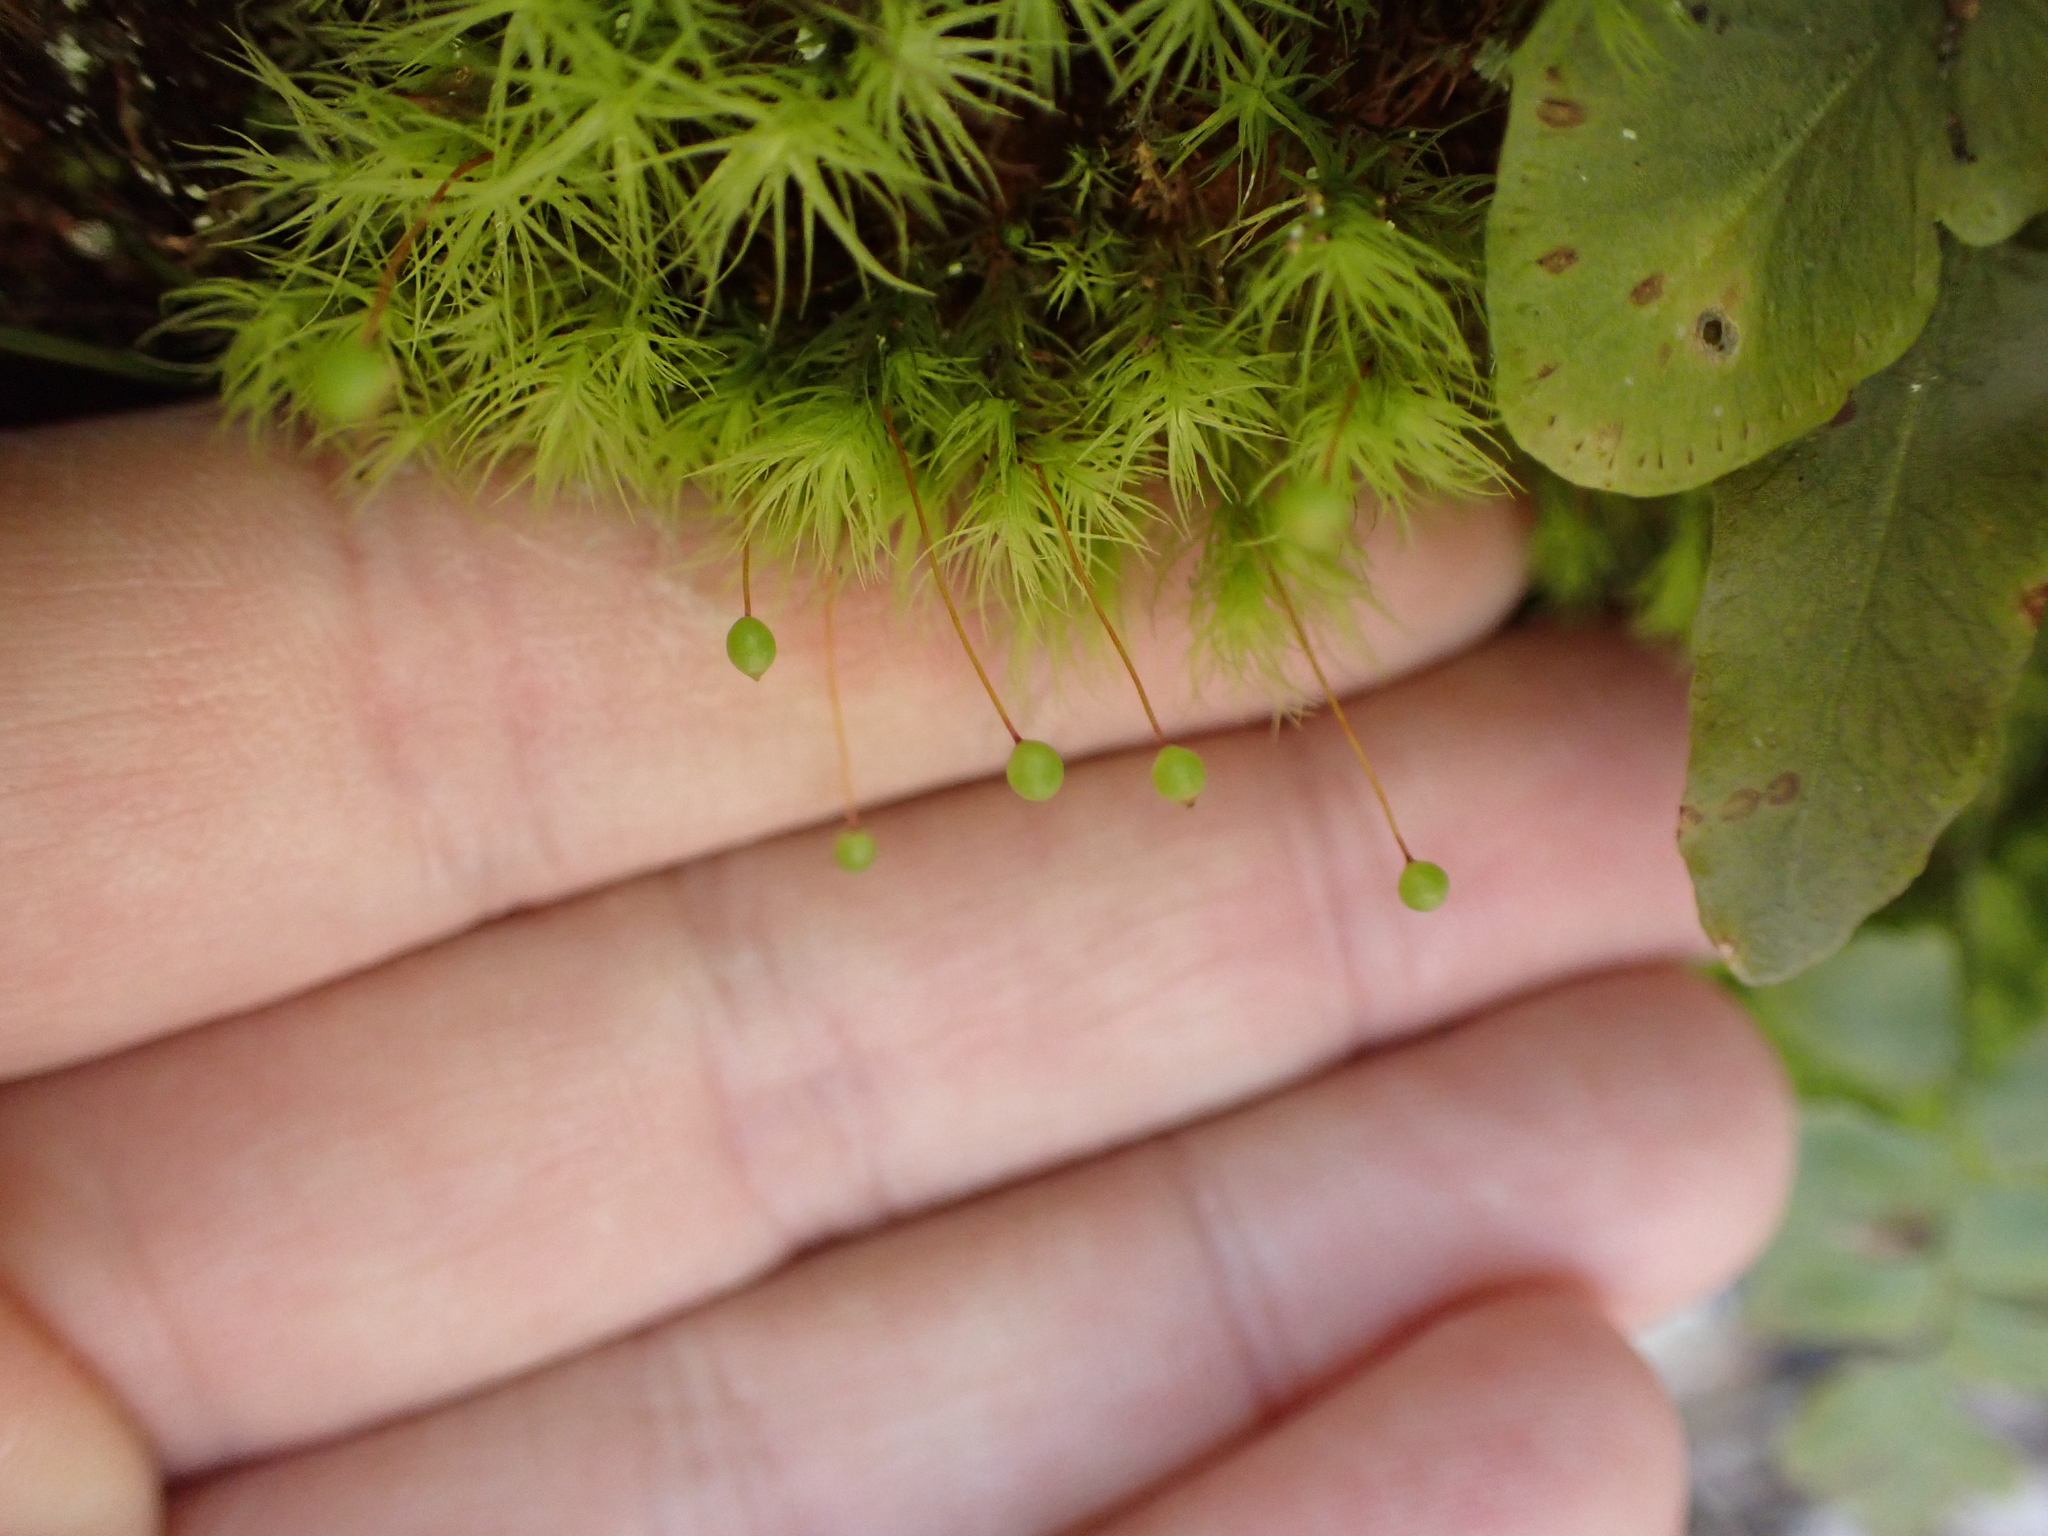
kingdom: Plantae
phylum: Bryophyta
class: Bryopsida
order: Bartramiales
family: Bartramiaceae
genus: Bartramia
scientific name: Bartramia ithyphylla
